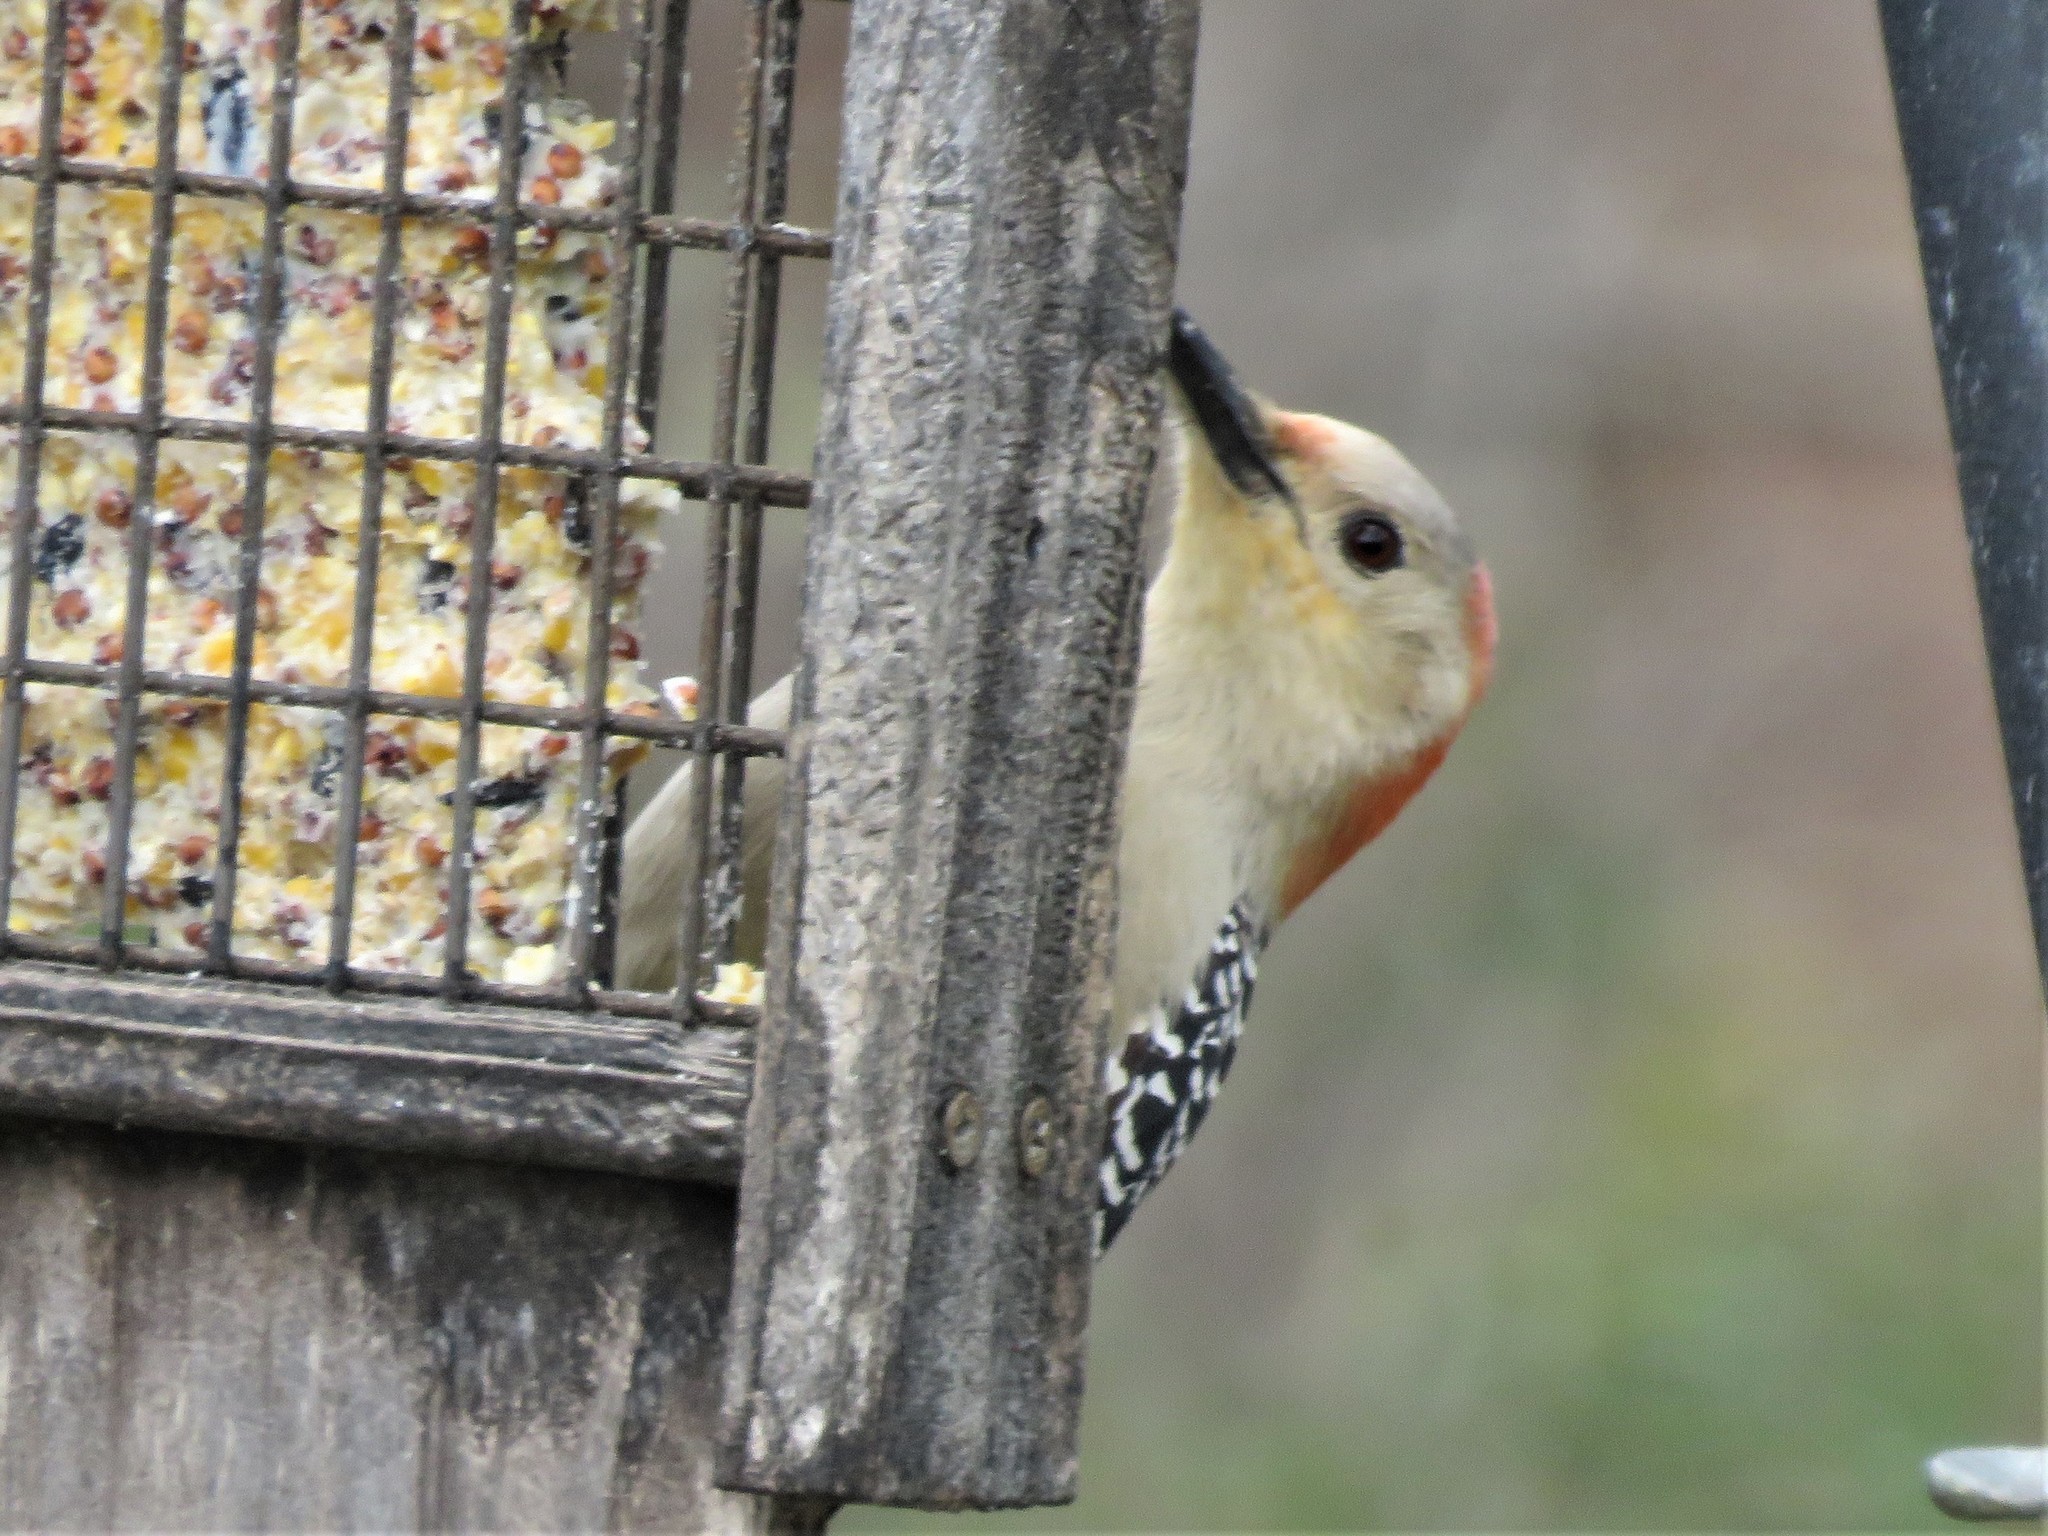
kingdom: Animalia
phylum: Chordata
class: Aves
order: Piciformes
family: Picidae
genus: Melanerpes
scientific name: Melanerpes carolinus
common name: Red-bellied woodpecker
